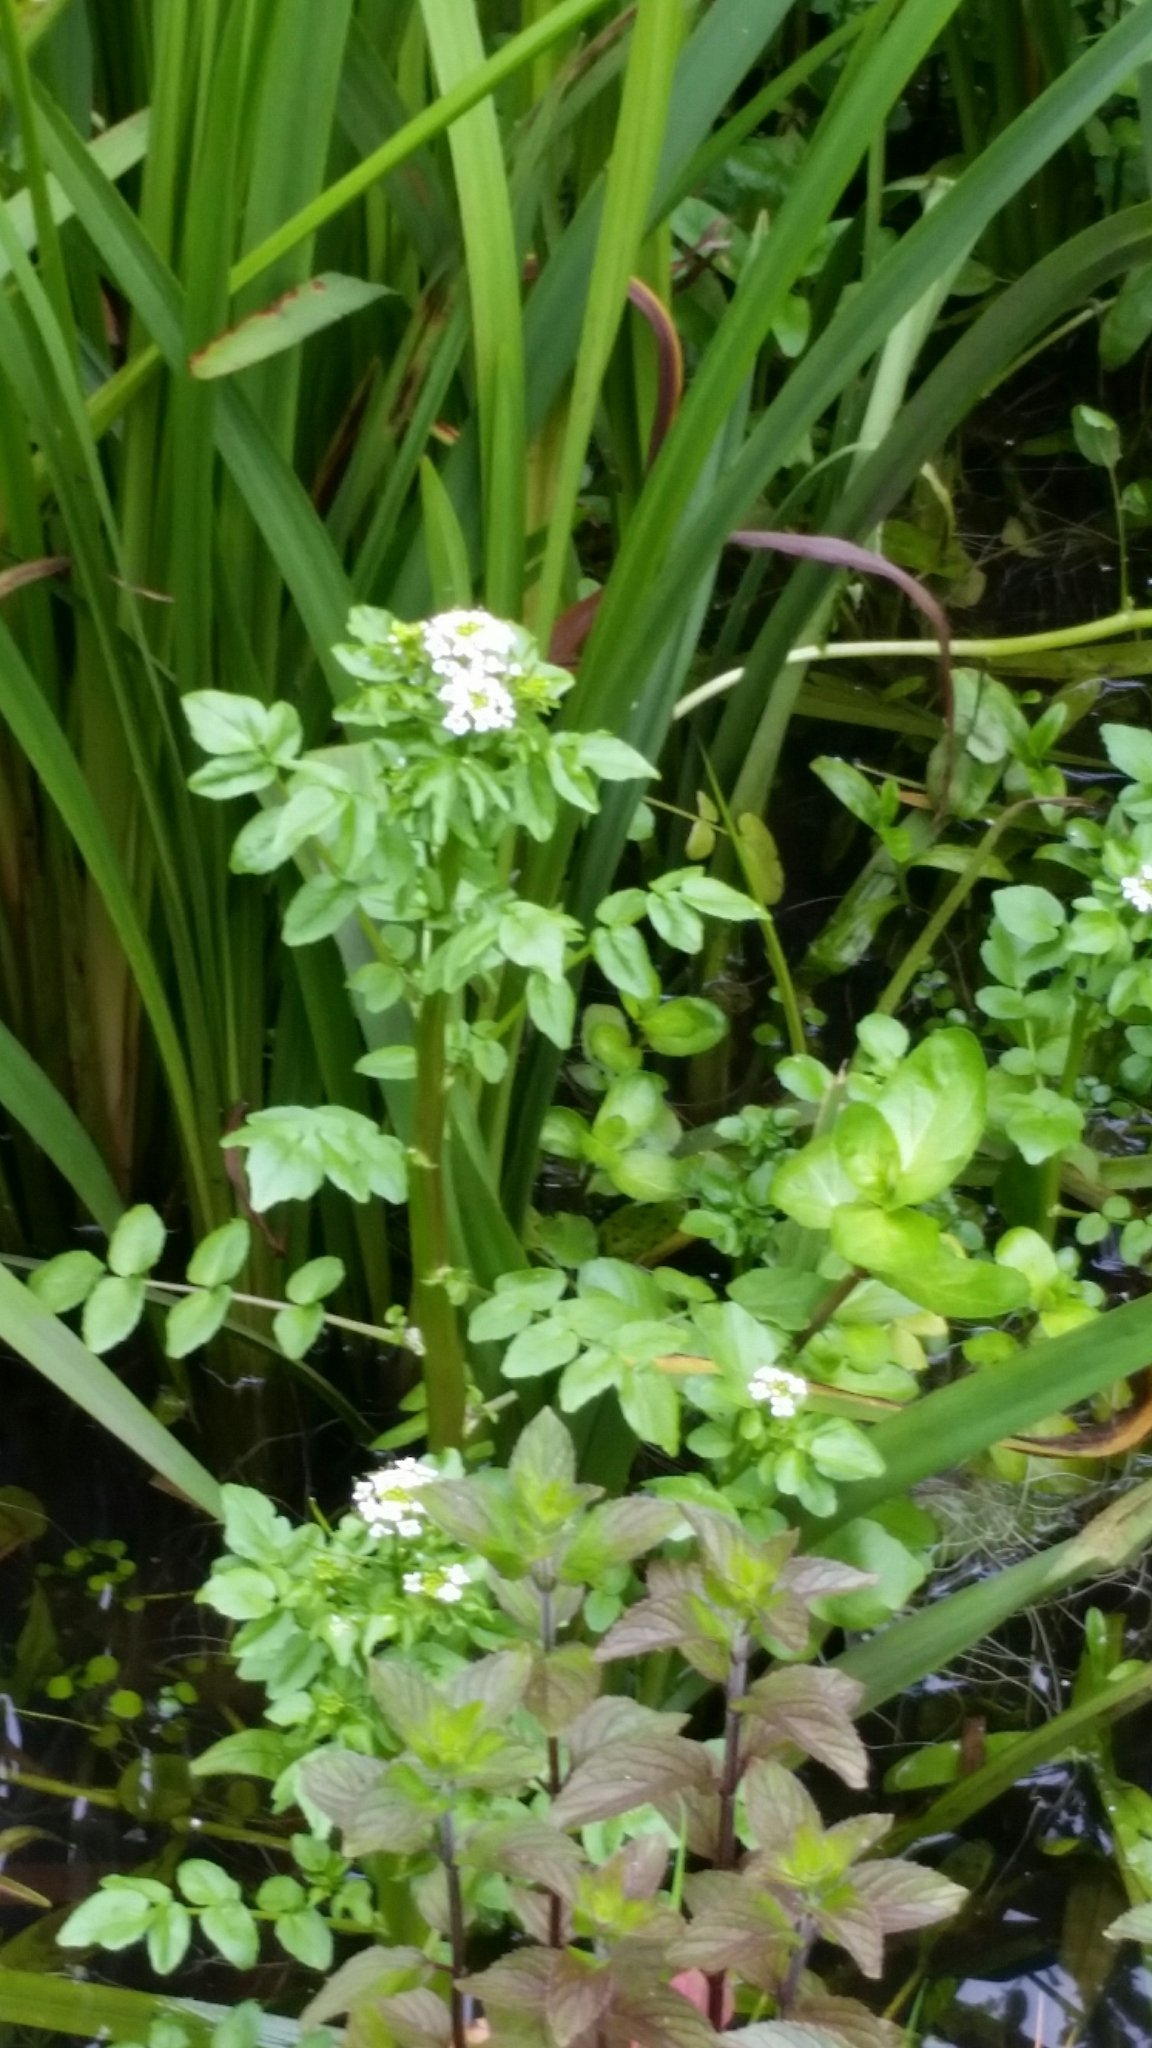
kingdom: Plantae
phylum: Tracheophyta
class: Magnoliopsida
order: Brassicales
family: Brassicaceae
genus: Nasturtium
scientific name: Nasturtium officinale
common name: Watercress
